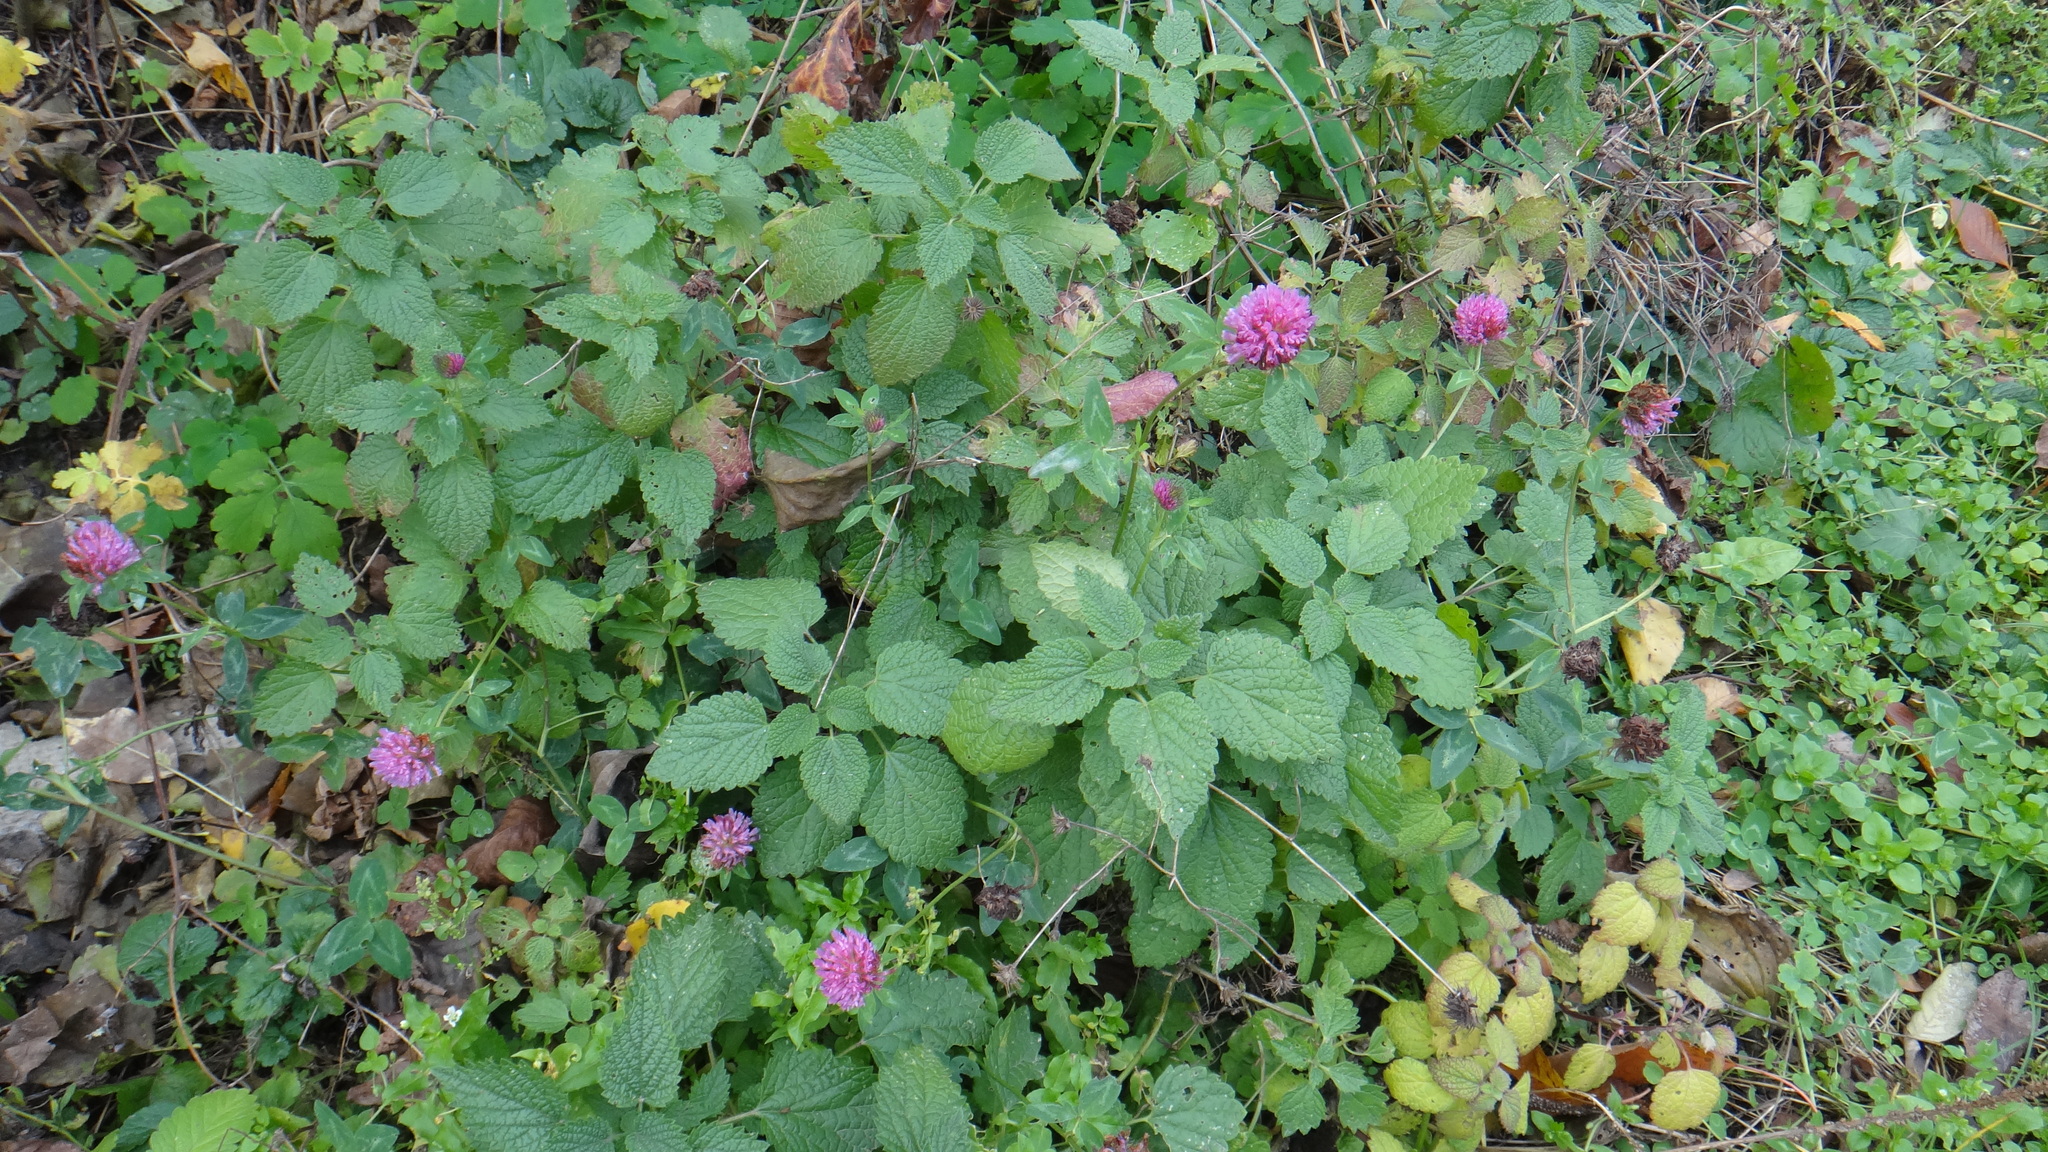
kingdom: Plantae
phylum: Tracheophyta
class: Magnoliopsida
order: Fabales
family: Fabaceae
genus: Trifolium
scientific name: Trifolium pratense
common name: Red clover
